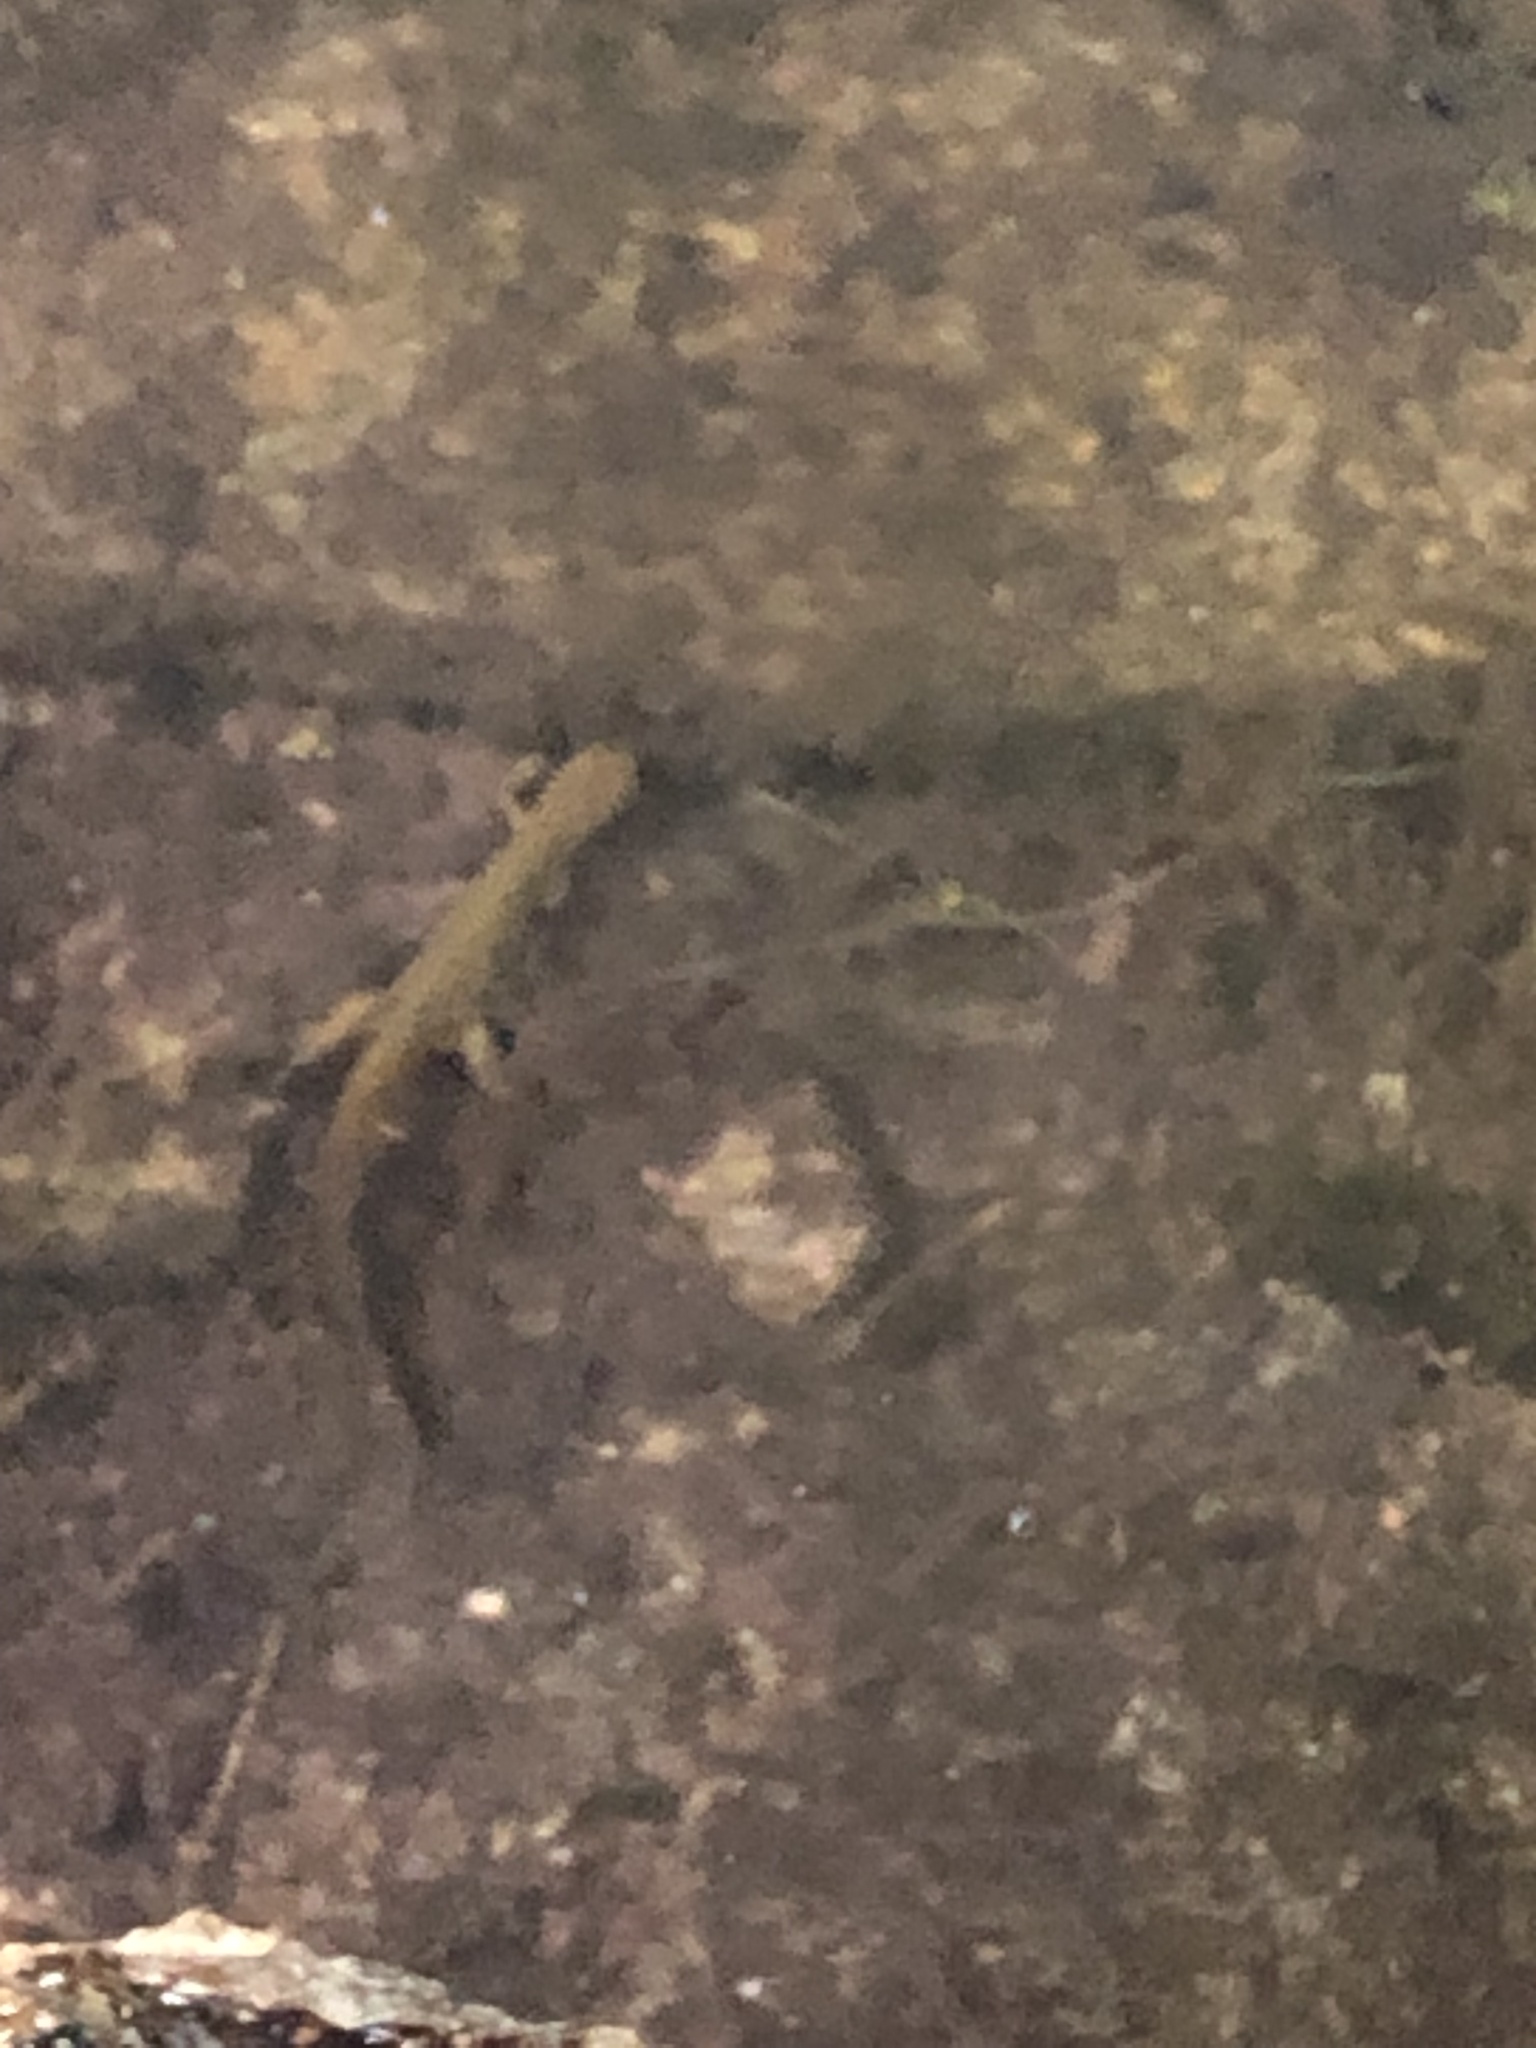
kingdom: Animalia
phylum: Chordata
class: Amphibia
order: Caudata
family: Salamandridae
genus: Notophthalmus
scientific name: Notophthalmus viridescens
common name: Eastern newt
